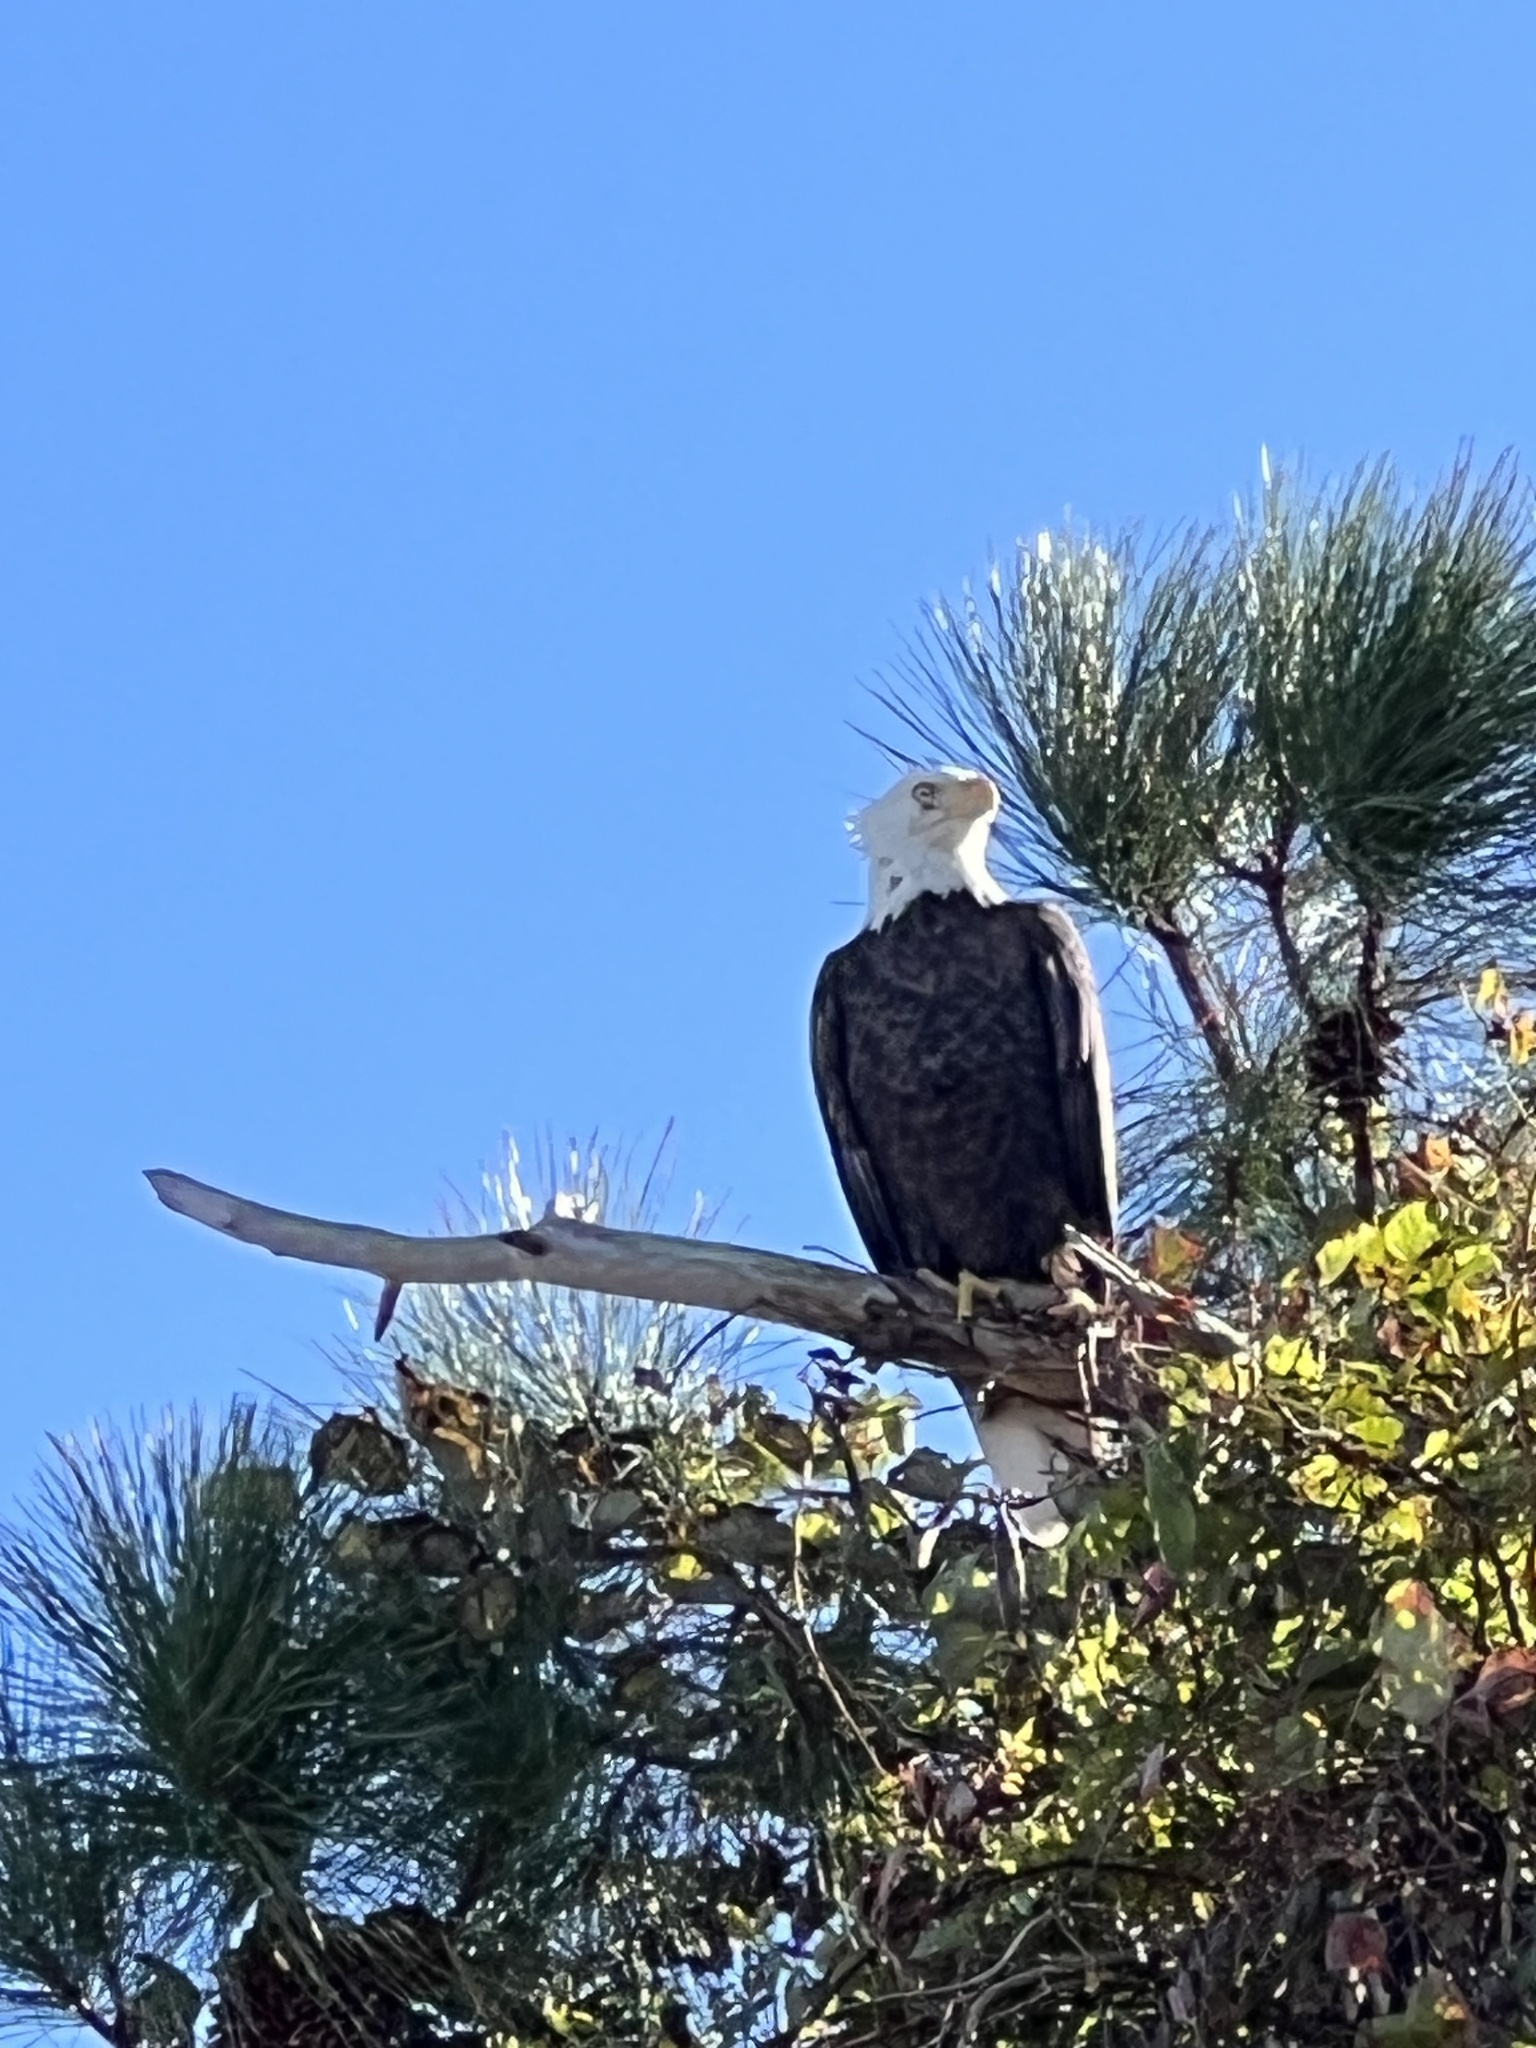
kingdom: Animalia
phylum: Chordata
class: Aves
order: Accipitriformes
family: Accipitridae
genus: Haliaeetus
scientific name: Haliaeetus leucocephalus
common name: Bald eagle
